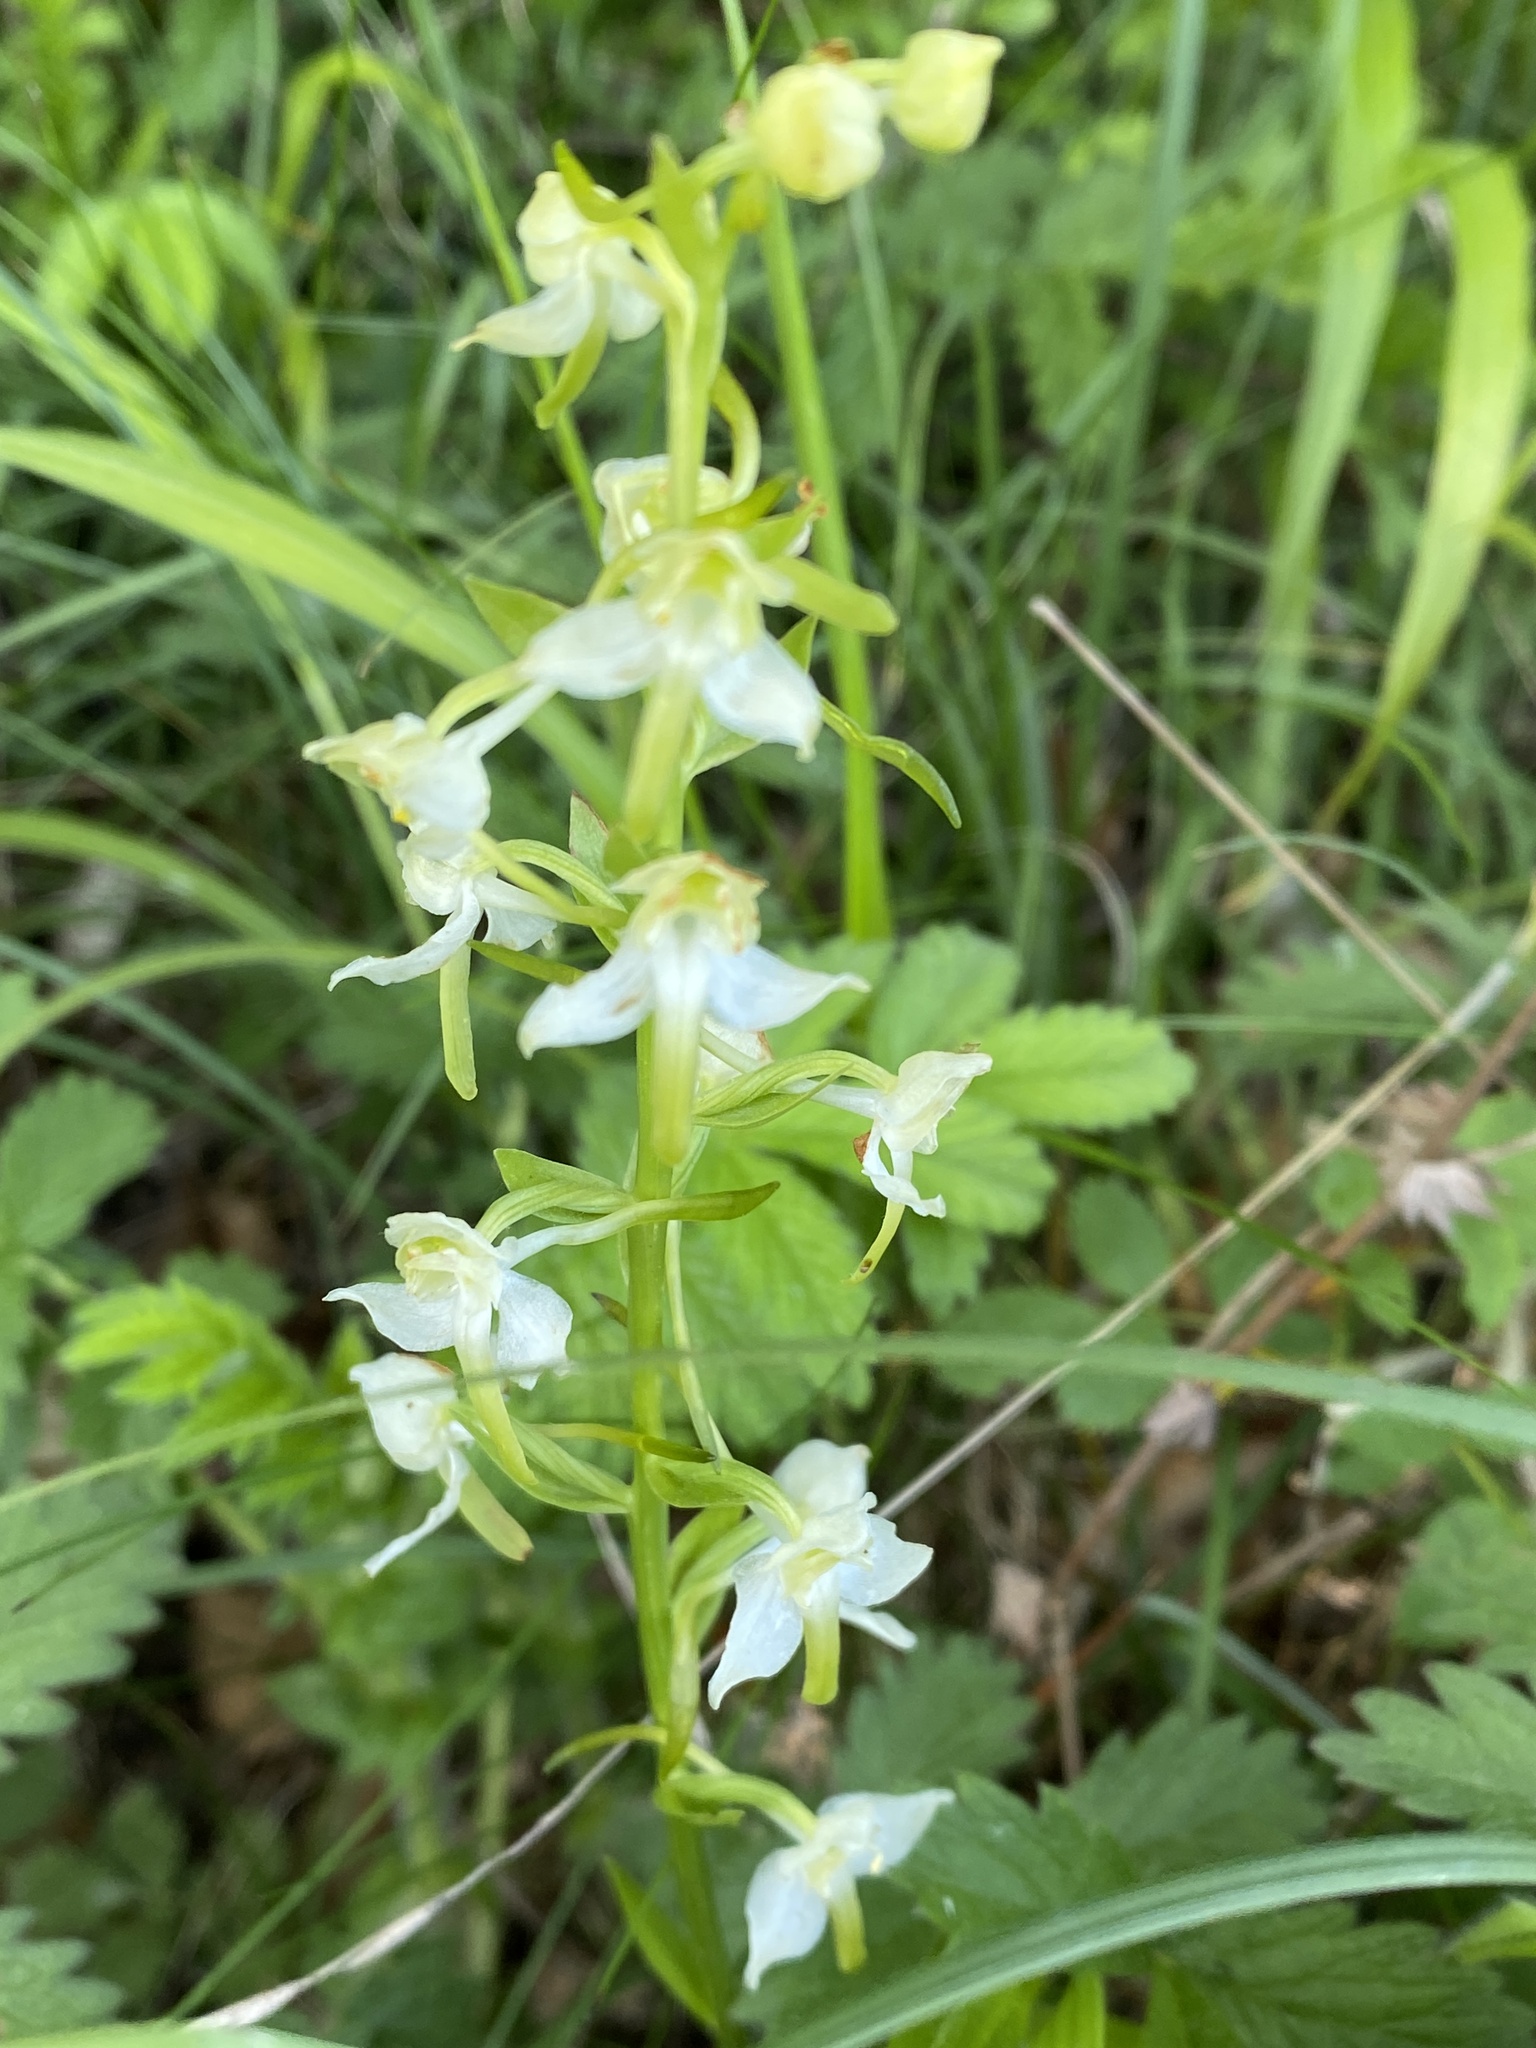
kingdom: Plantae
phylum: Tracheophyta
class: Liliopsida
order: Asparagales
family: Orchidaceae
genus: Platanthera
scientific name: Platanthera chlorantha
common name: Greater butterfly-orchid
